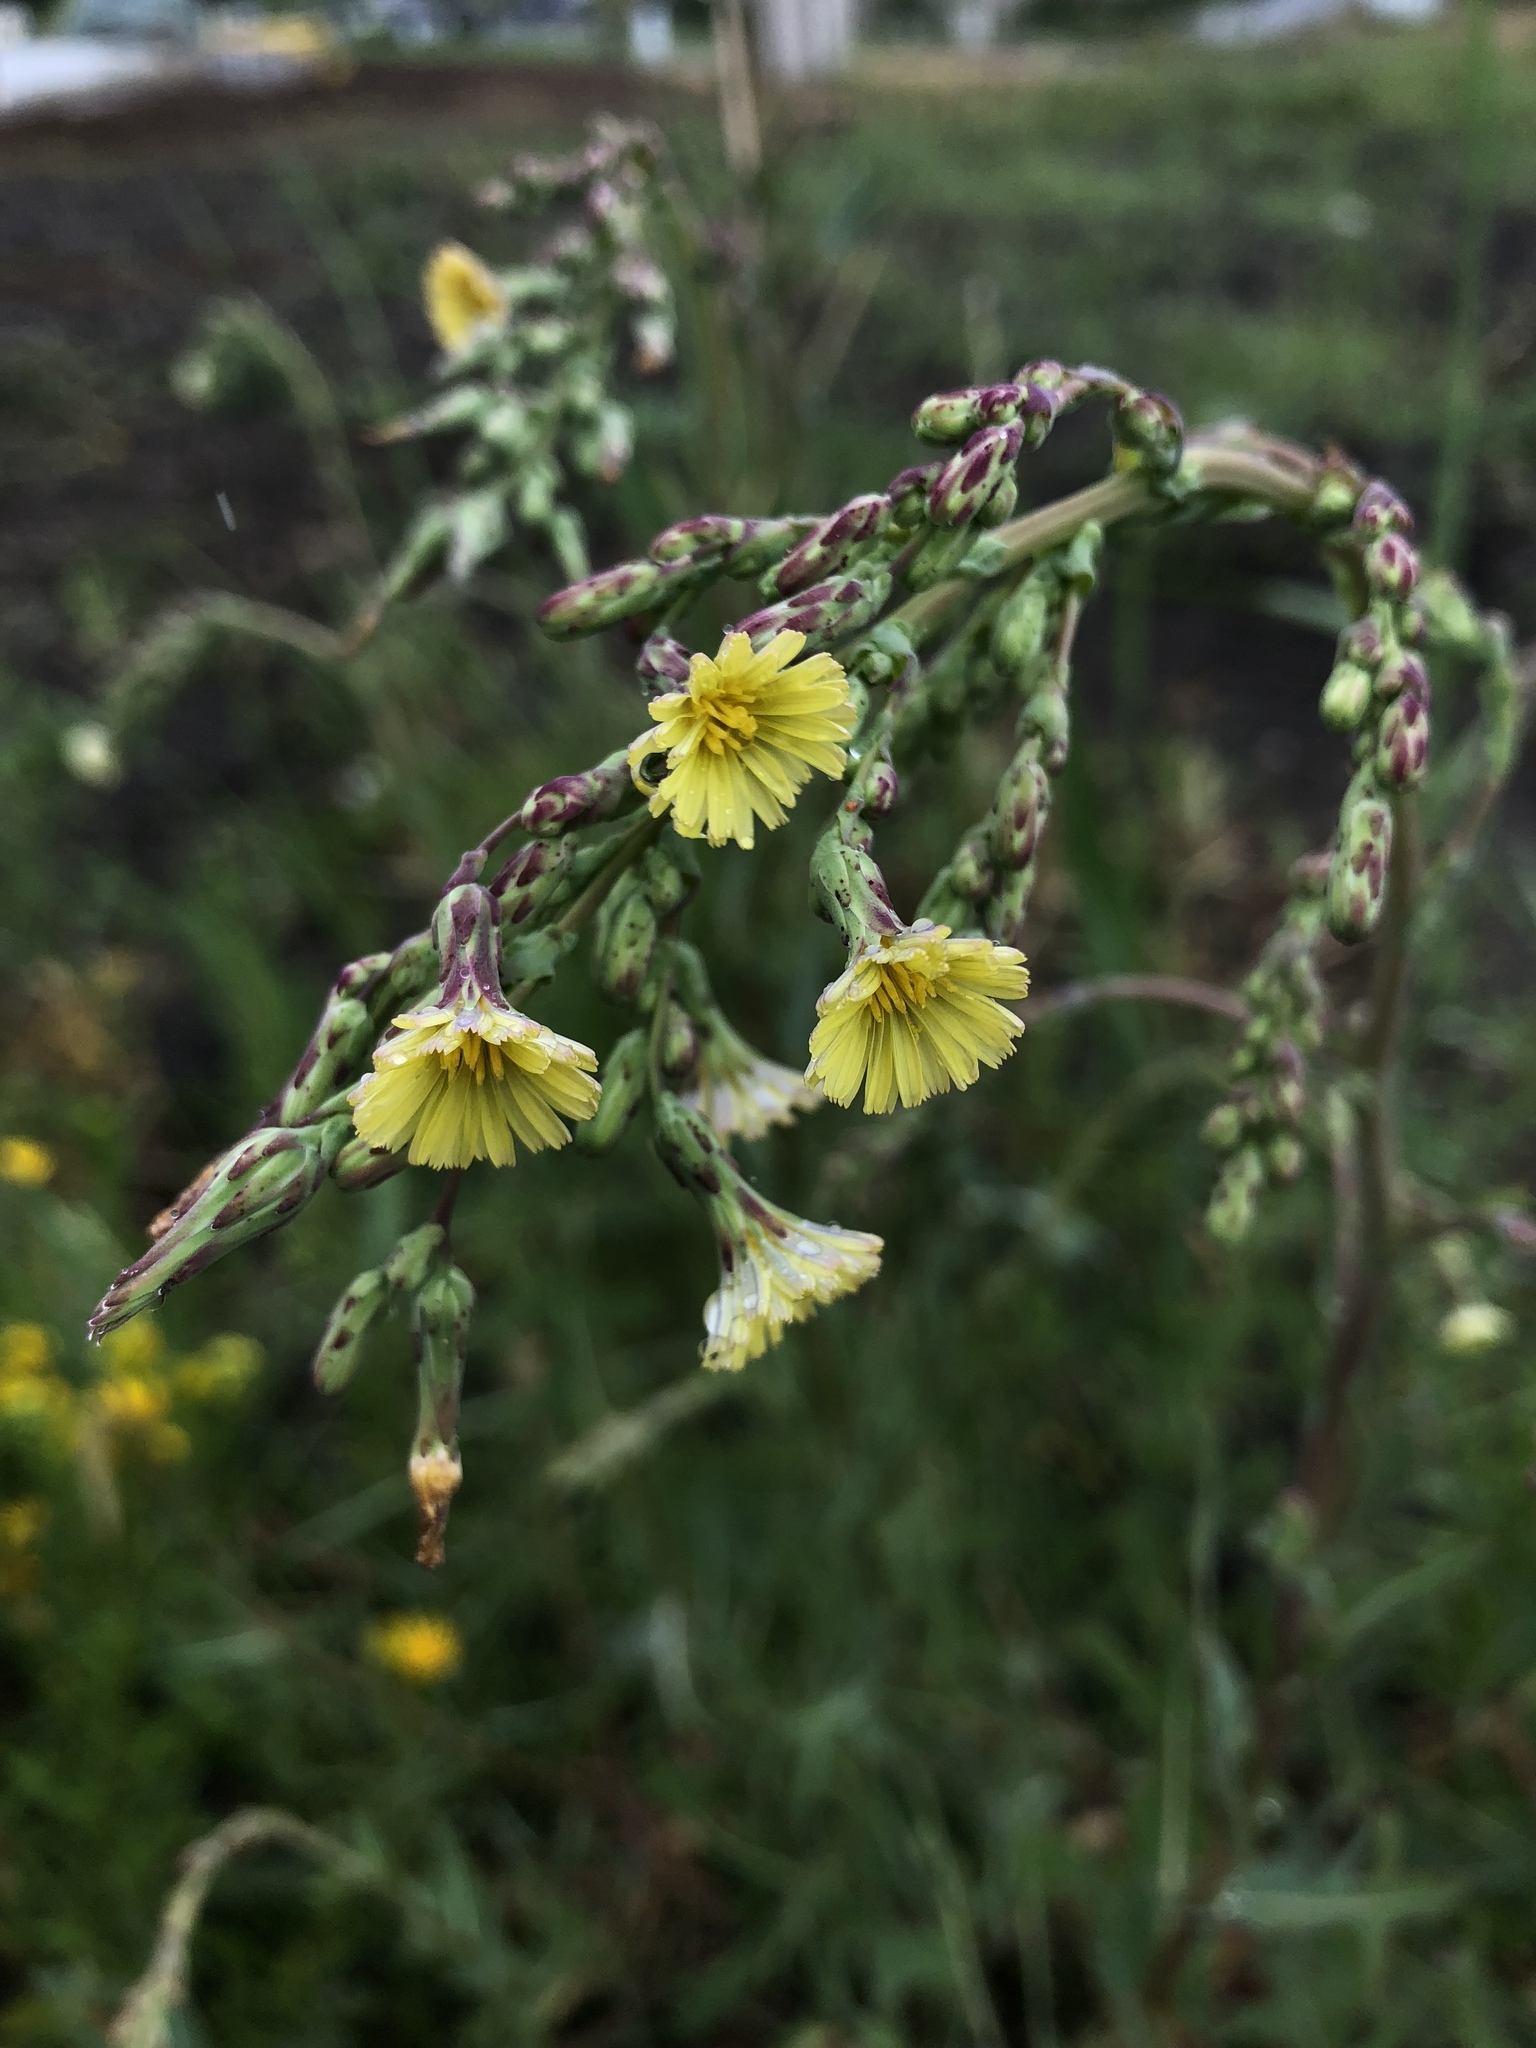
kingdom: Plantae
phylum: Tracheophyta
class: Magnoliopsida
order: Asterales
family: Asteraceae
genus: Lactuca
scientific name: Lactuca serriola
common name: Prickly lettuce
